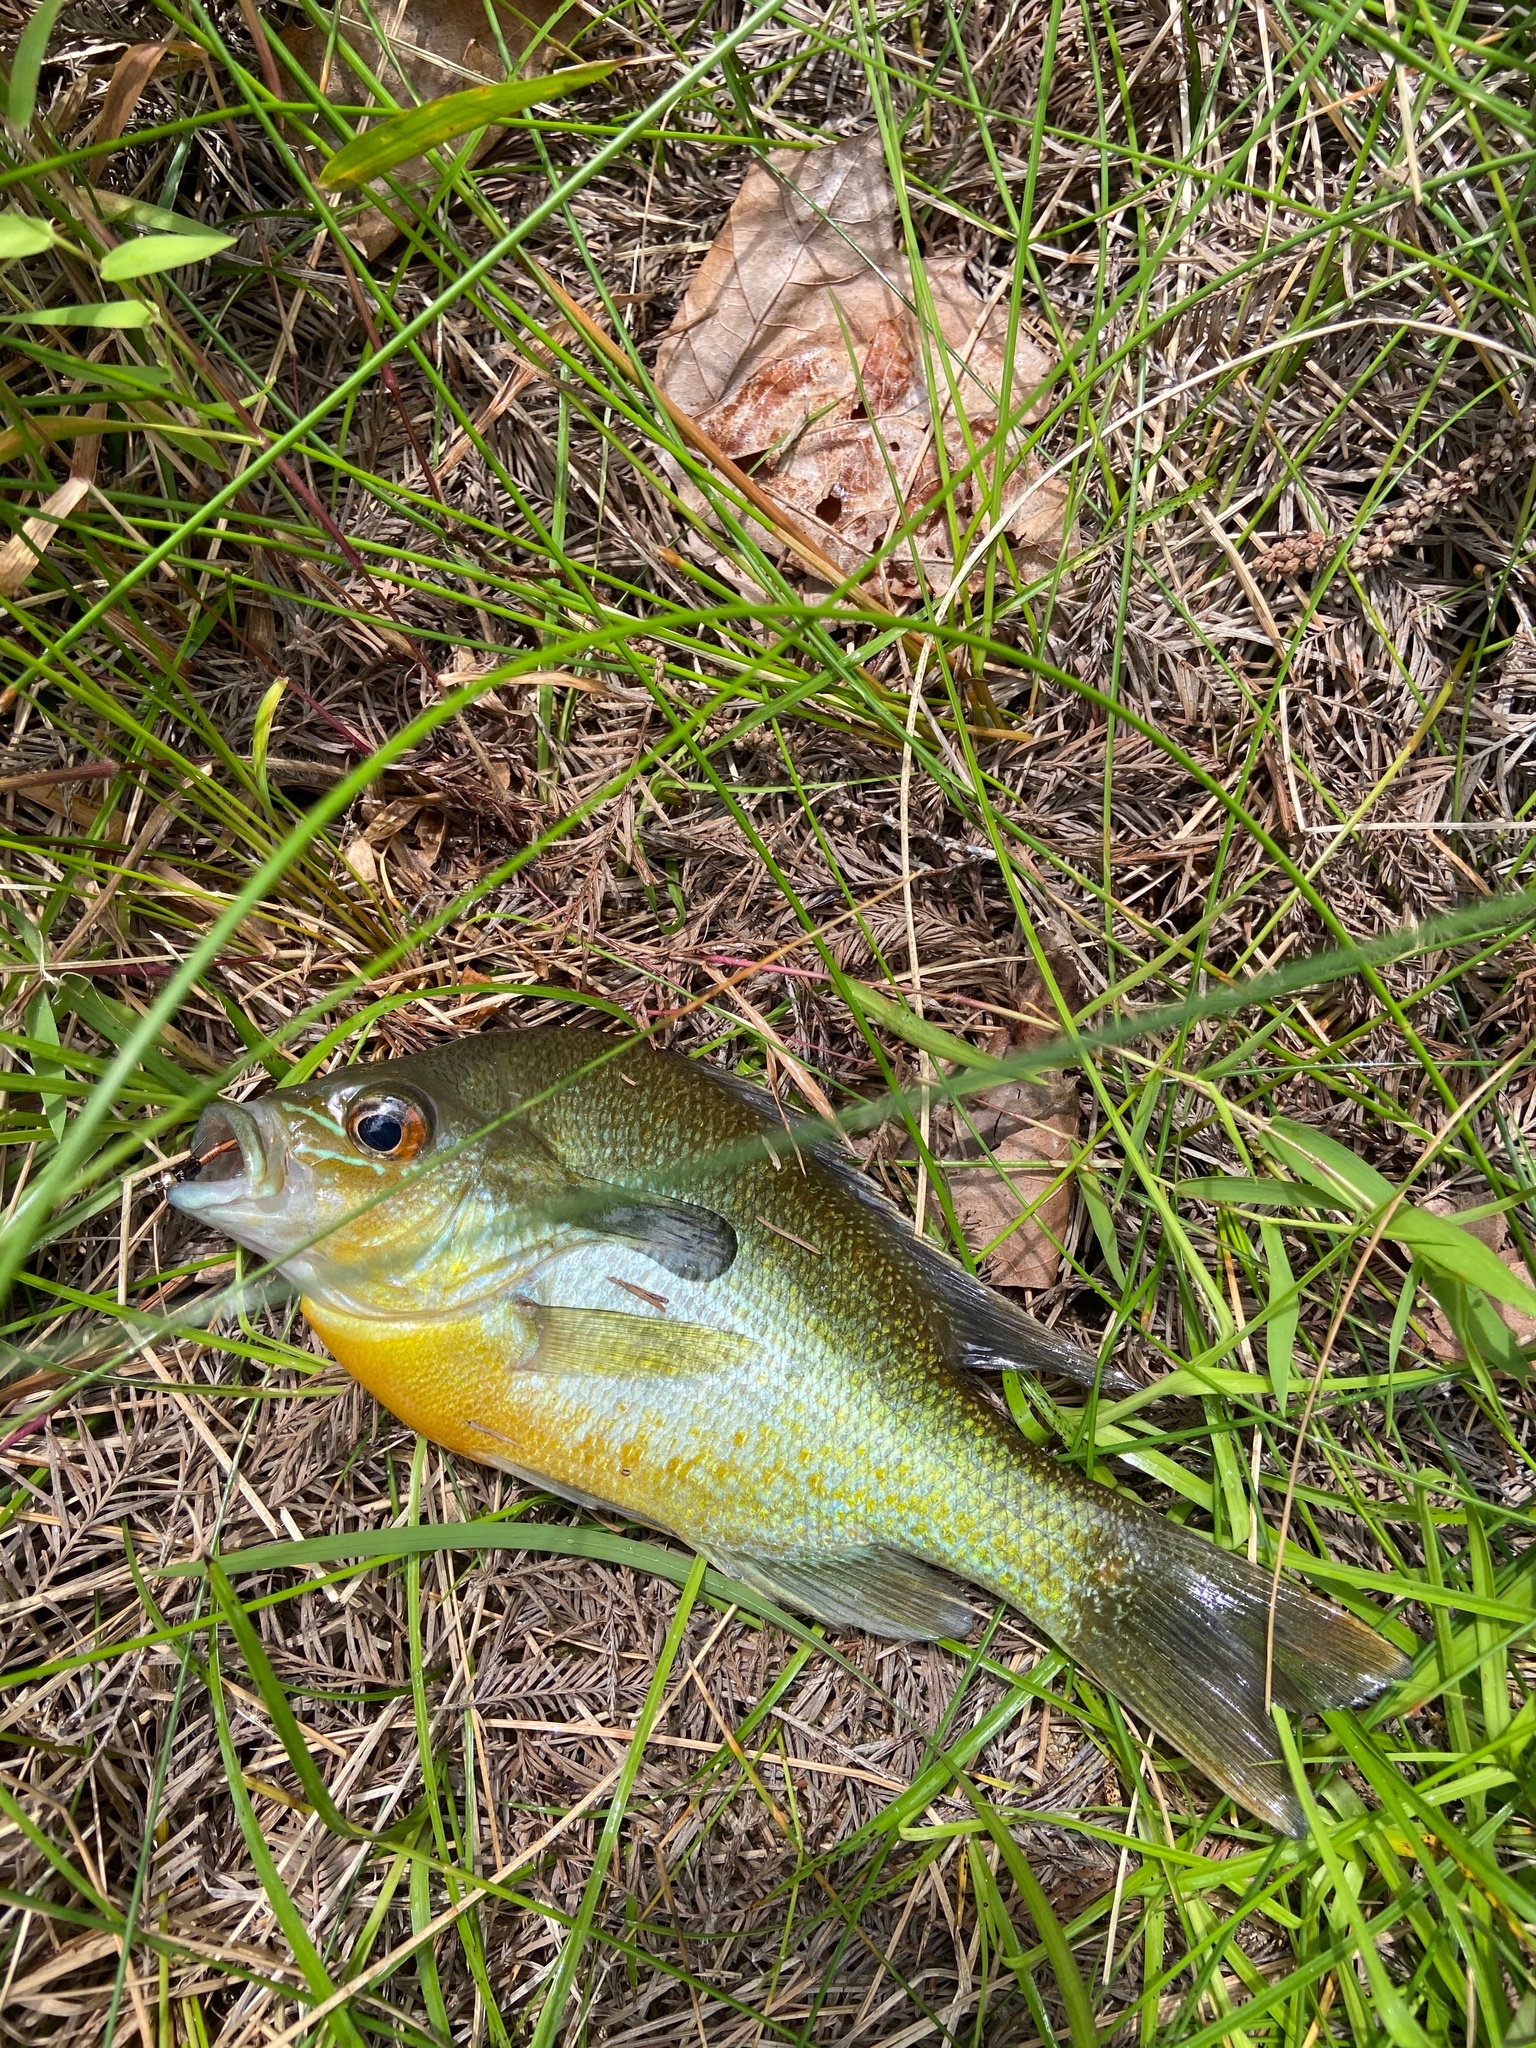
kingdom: Animalia
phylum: Chordata
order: Perciformes
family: Centrarchidae
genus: Lepomis
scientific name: Lepomis auritus
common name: Redbreast sunfish
